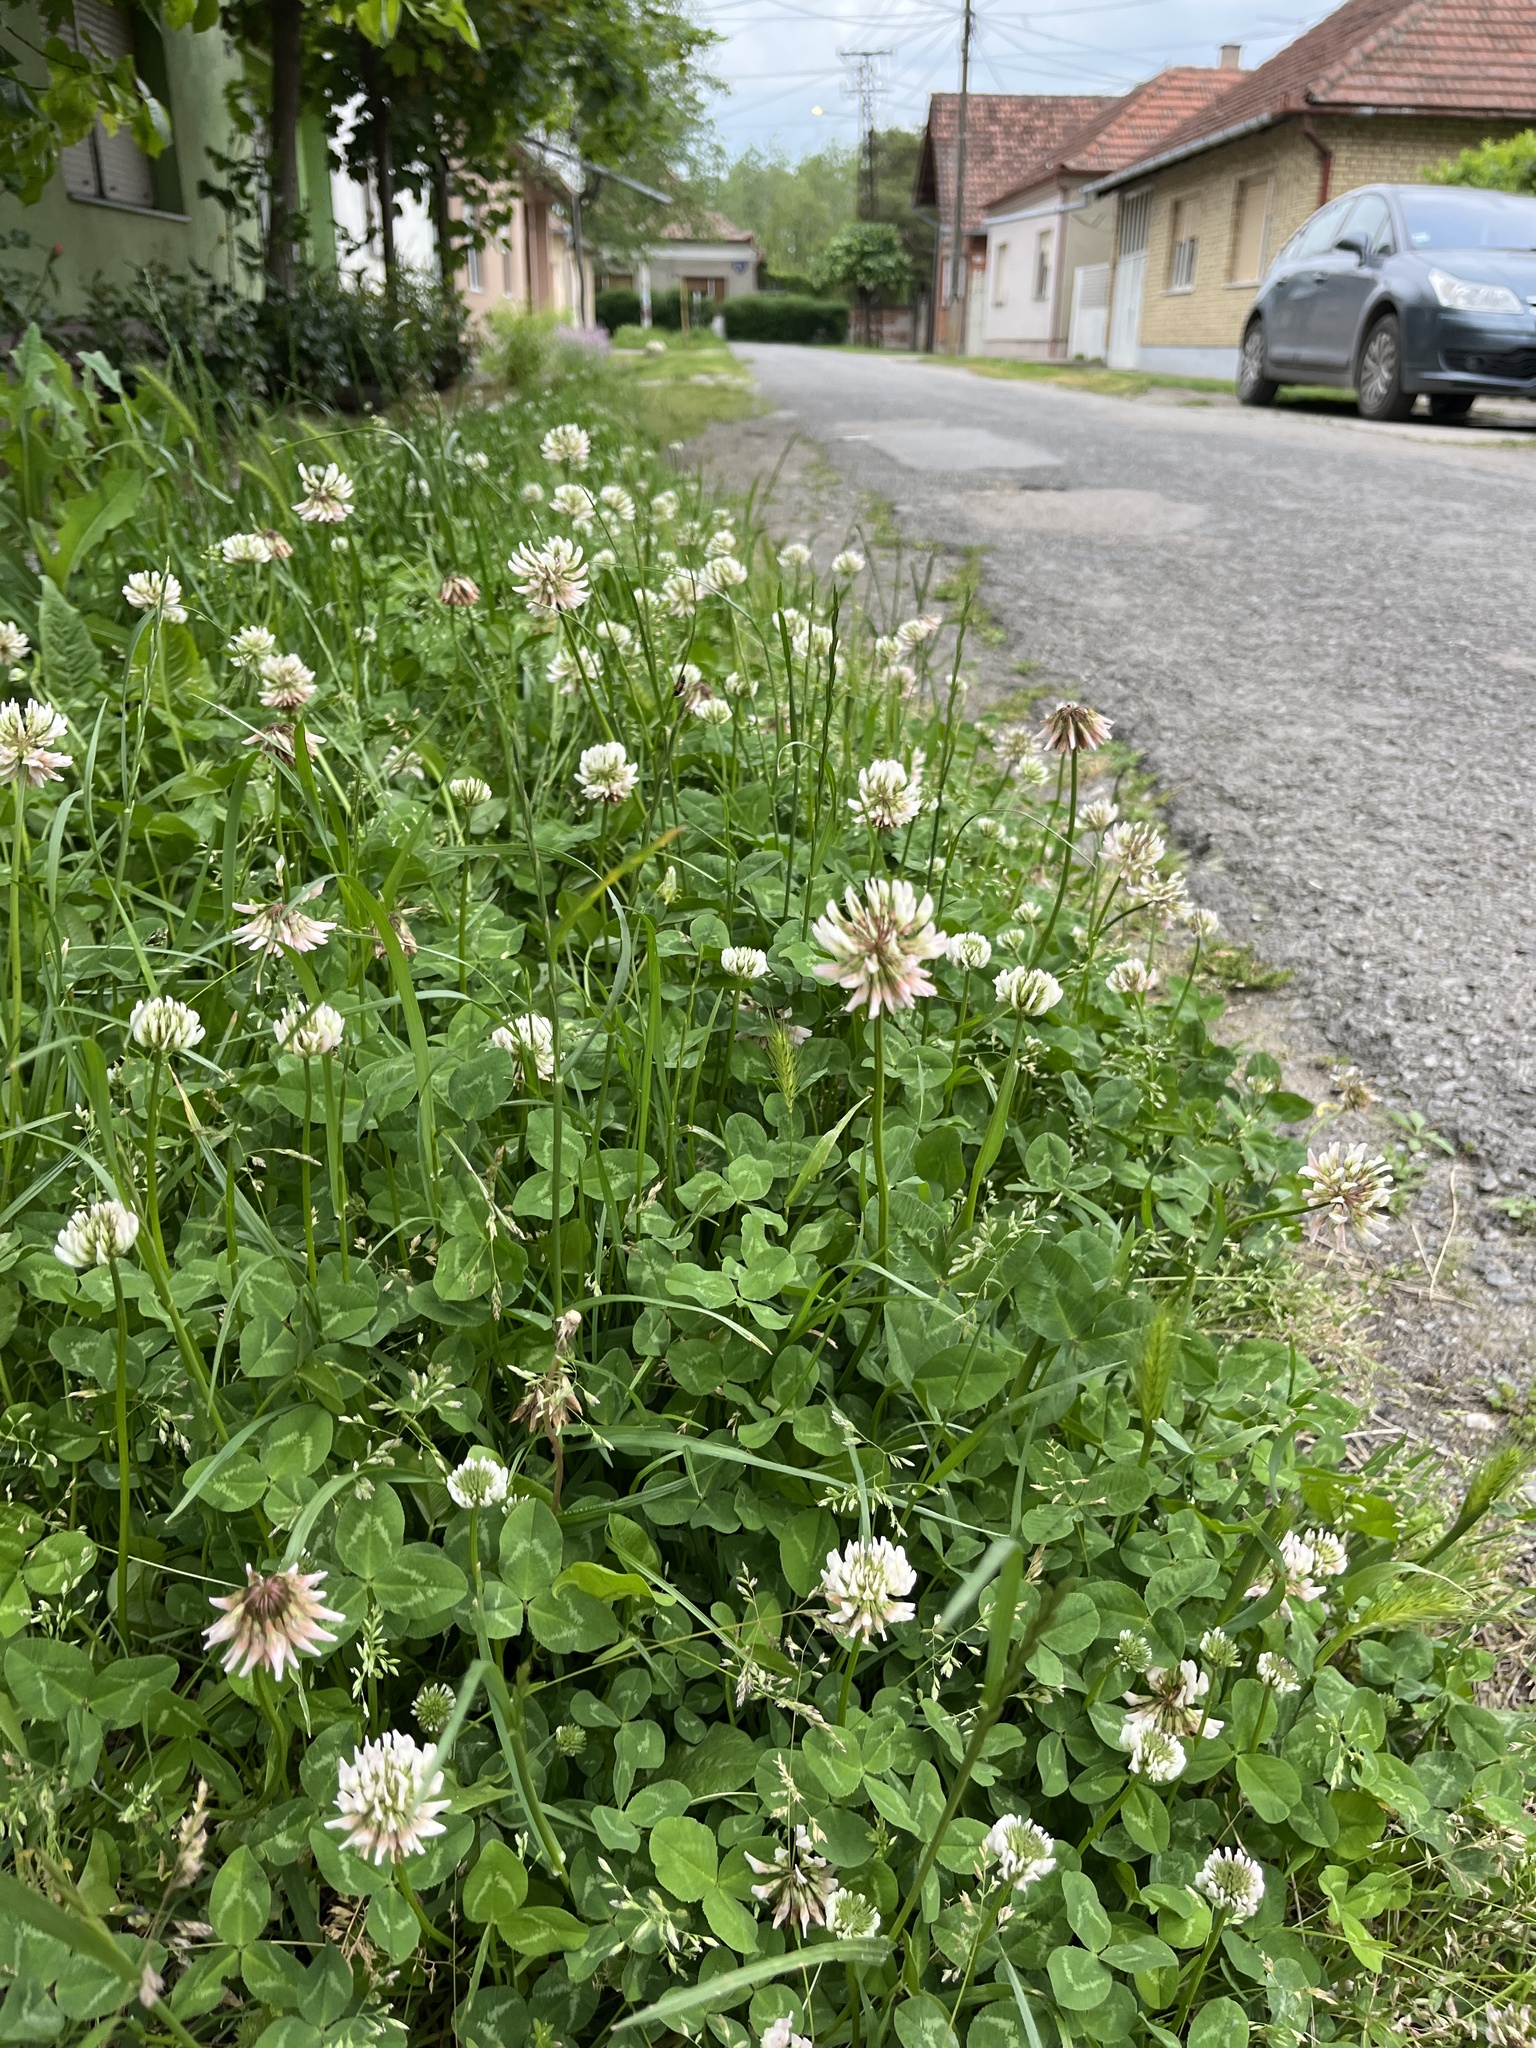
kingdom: Plantae
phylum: Tracheophyta
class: Magnoliopsida
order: Fabales
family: Fabaceae
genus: Trifolium
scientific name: Trifolium repens
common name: White clover
